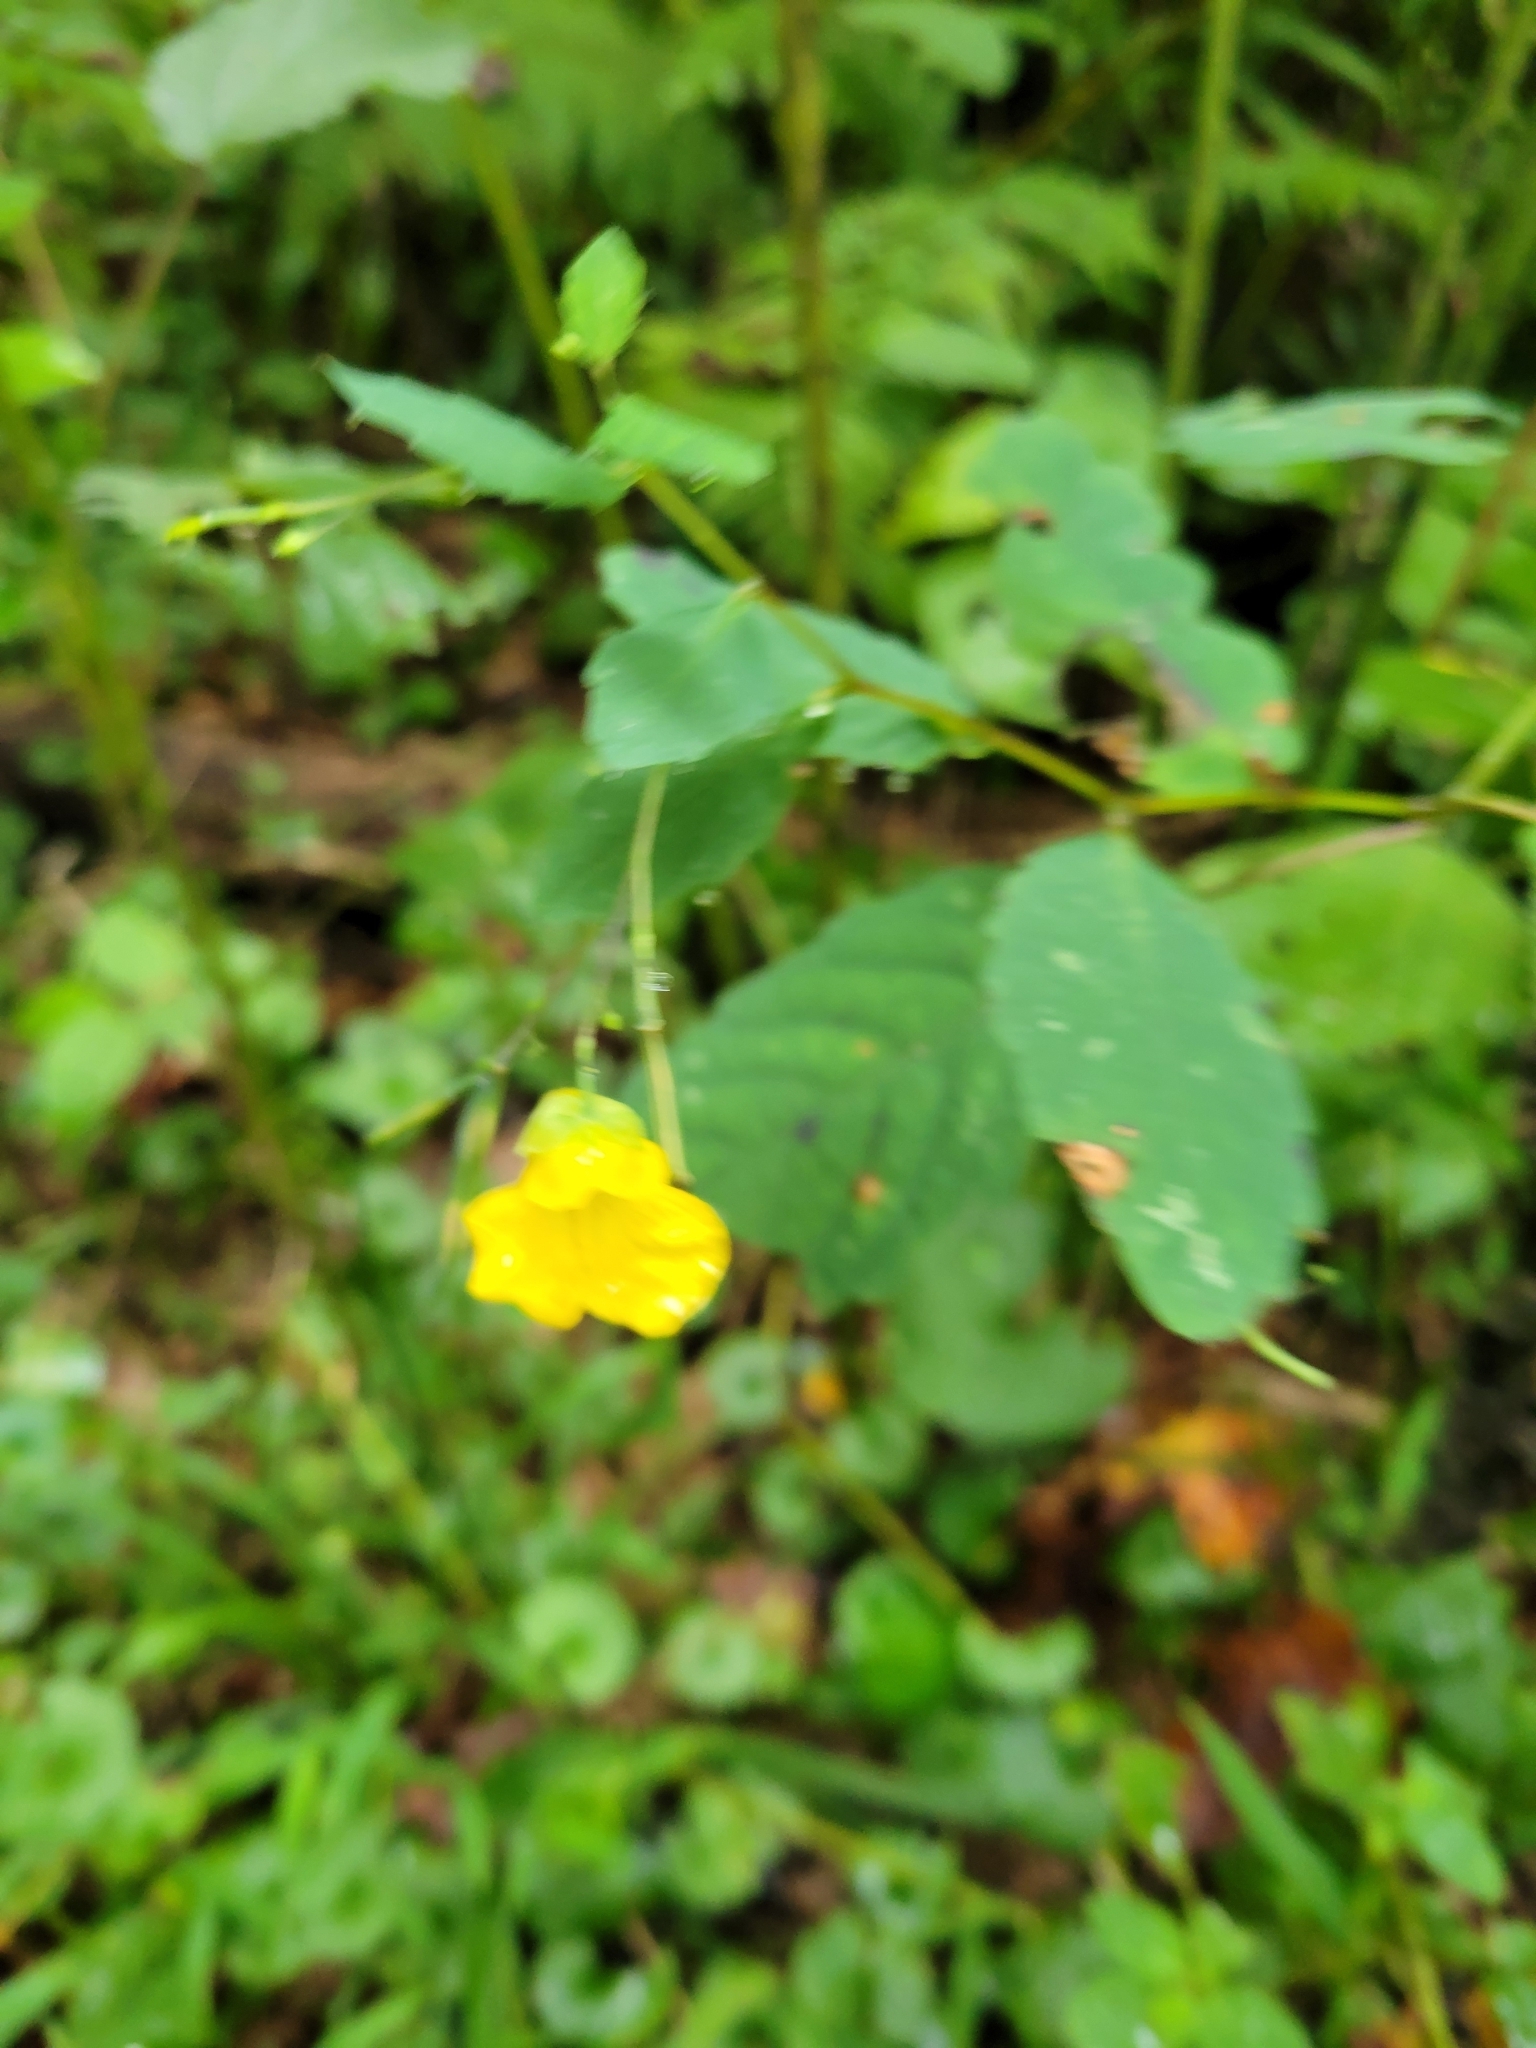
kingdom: Plantae
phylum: Tracheophyta
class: Magnoliopsida
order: Ericales
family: Balsaminaceae
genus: Impatiens
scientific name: Impatiens pallida
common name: Pale snapweed
